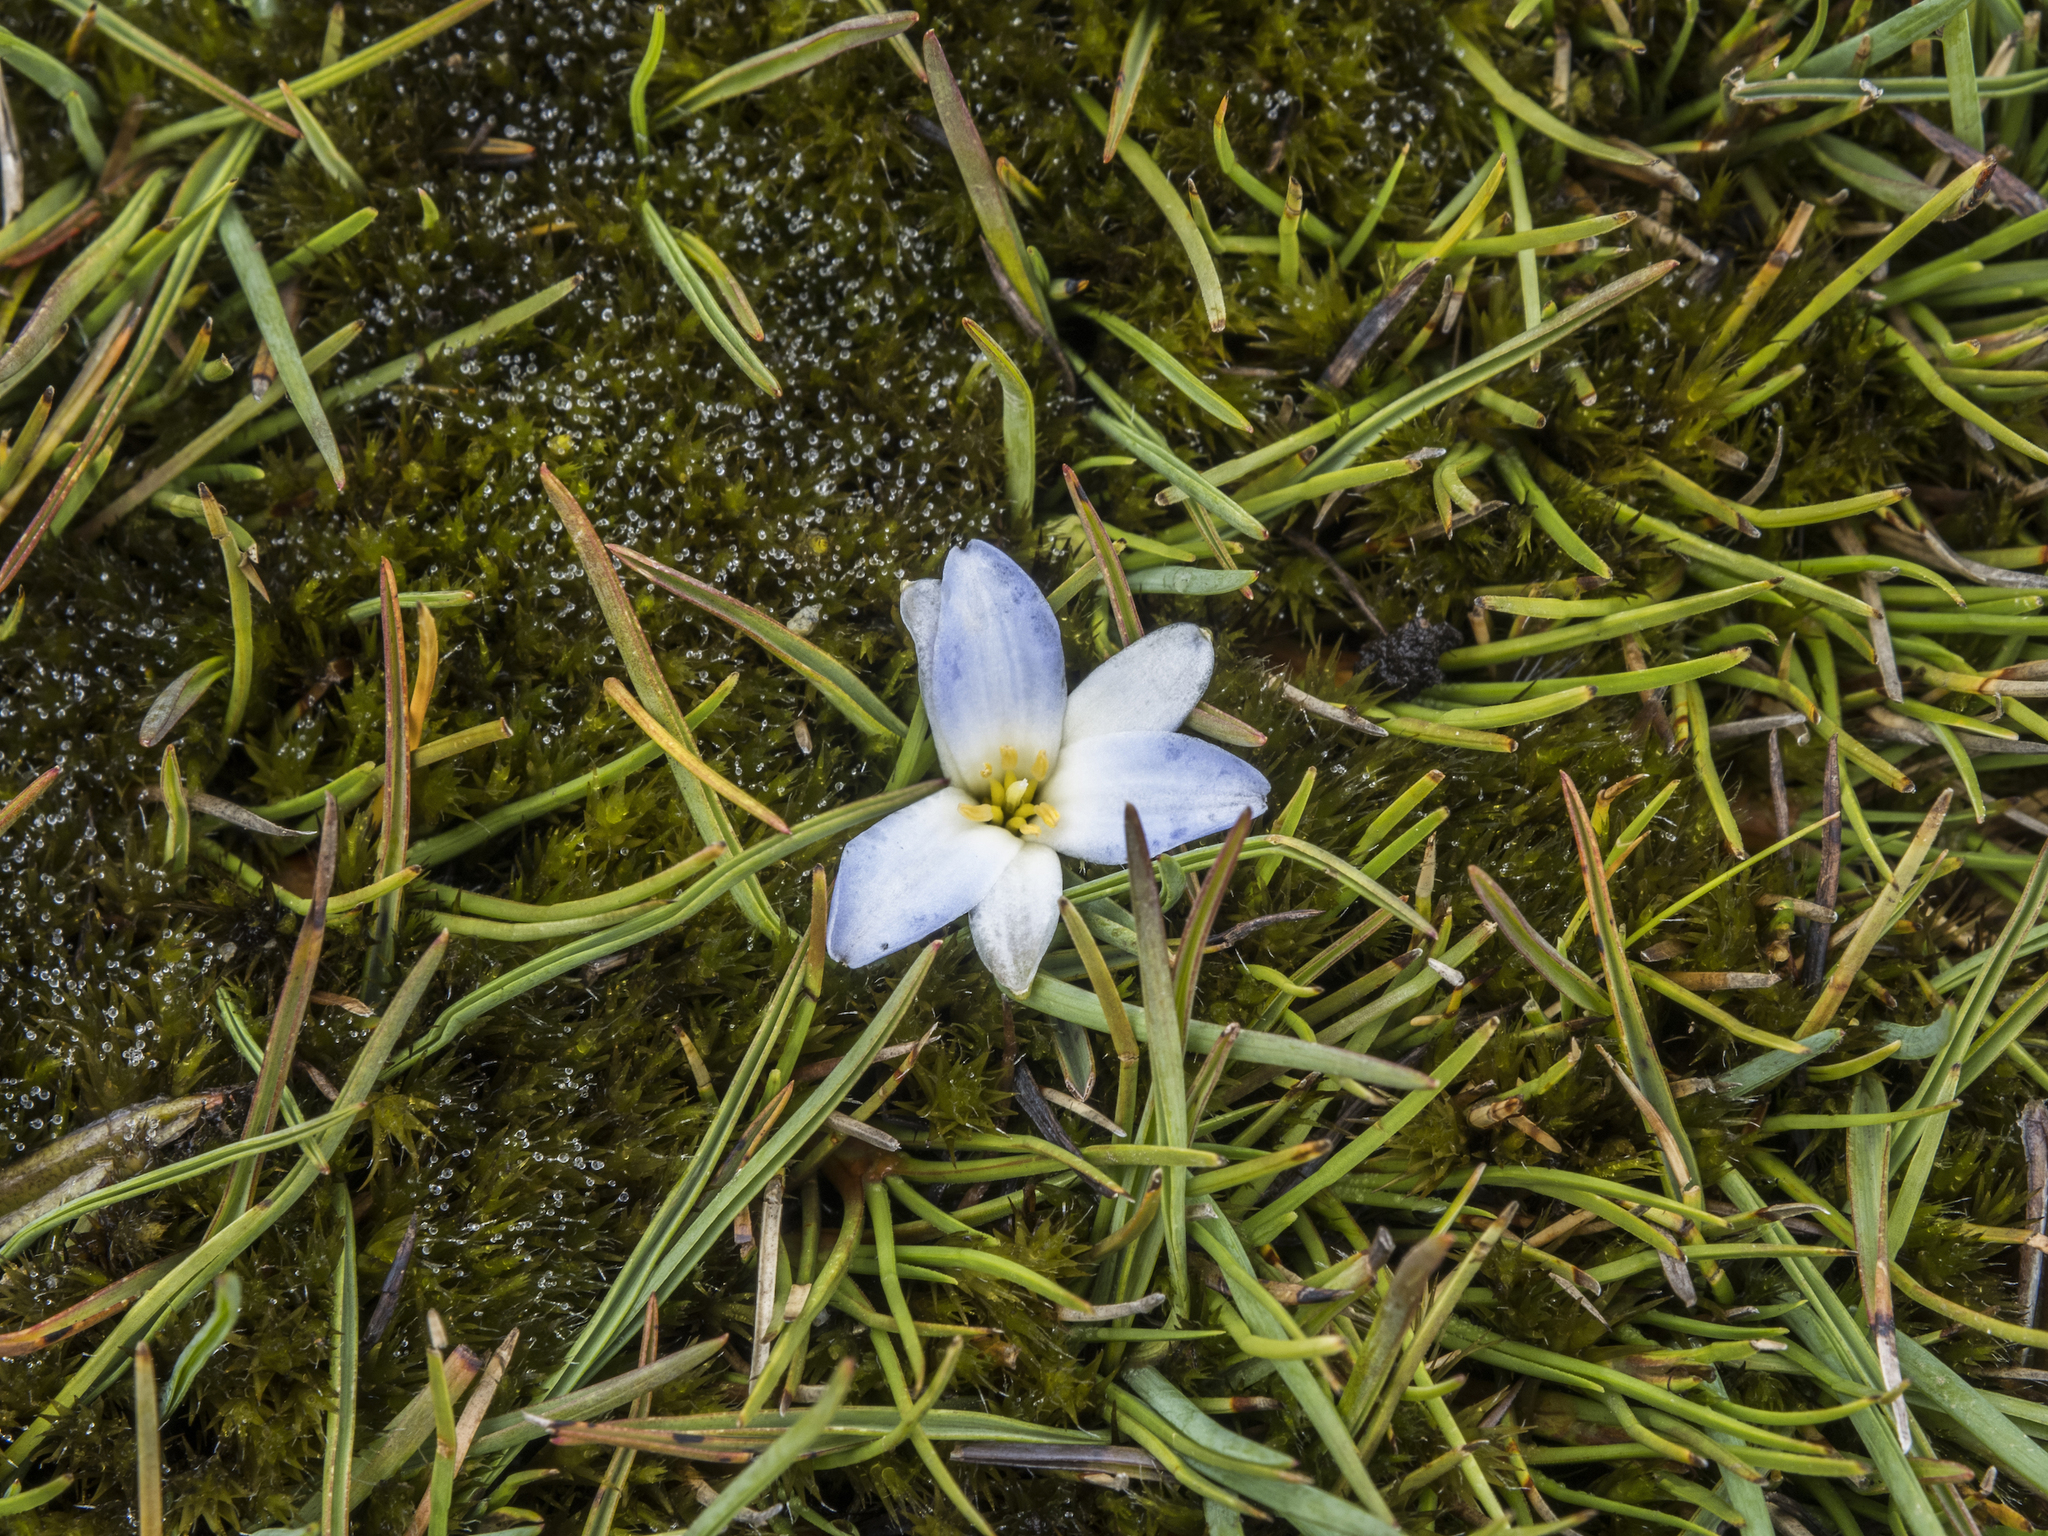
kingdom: Plantae
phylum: Tracheophyta
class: Liliopsida
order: Asparagales
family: Asphodelaceae
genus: Herpolirion
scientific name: Herpolirion novae-zelandiae
